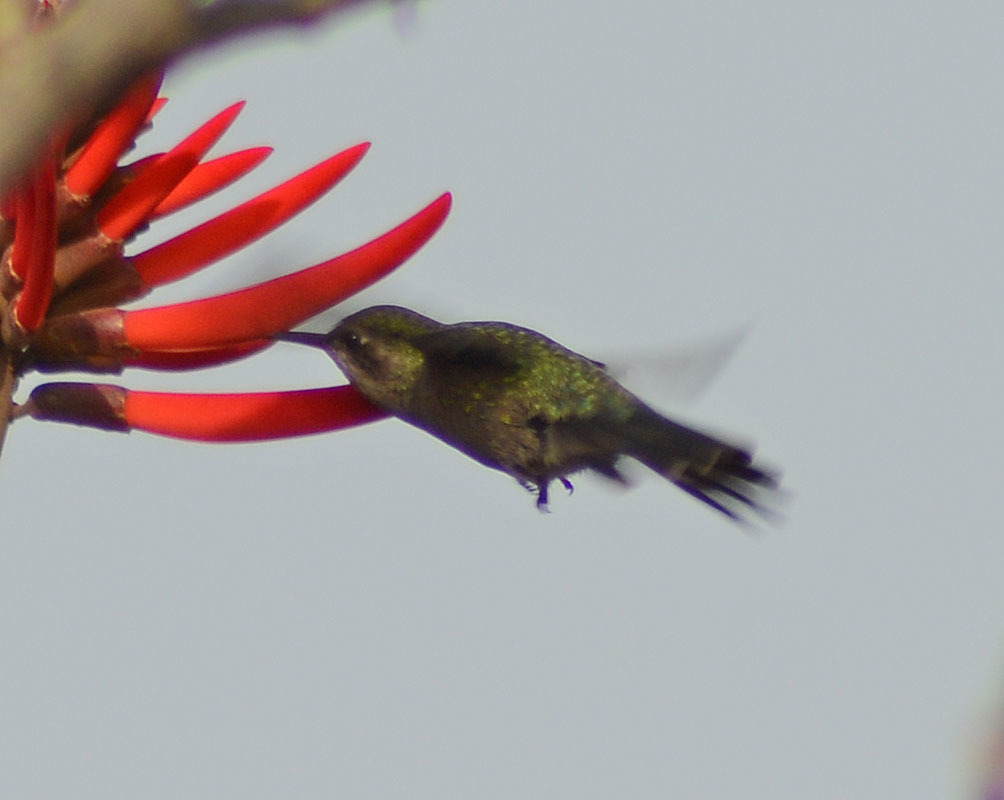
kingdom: Animalia
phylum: Chordata
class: Aves
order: Apodiformes
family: Trochilidae
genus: Cynanthus
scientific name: Cynanthus latirostris
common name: Broad-billed hummingbird
